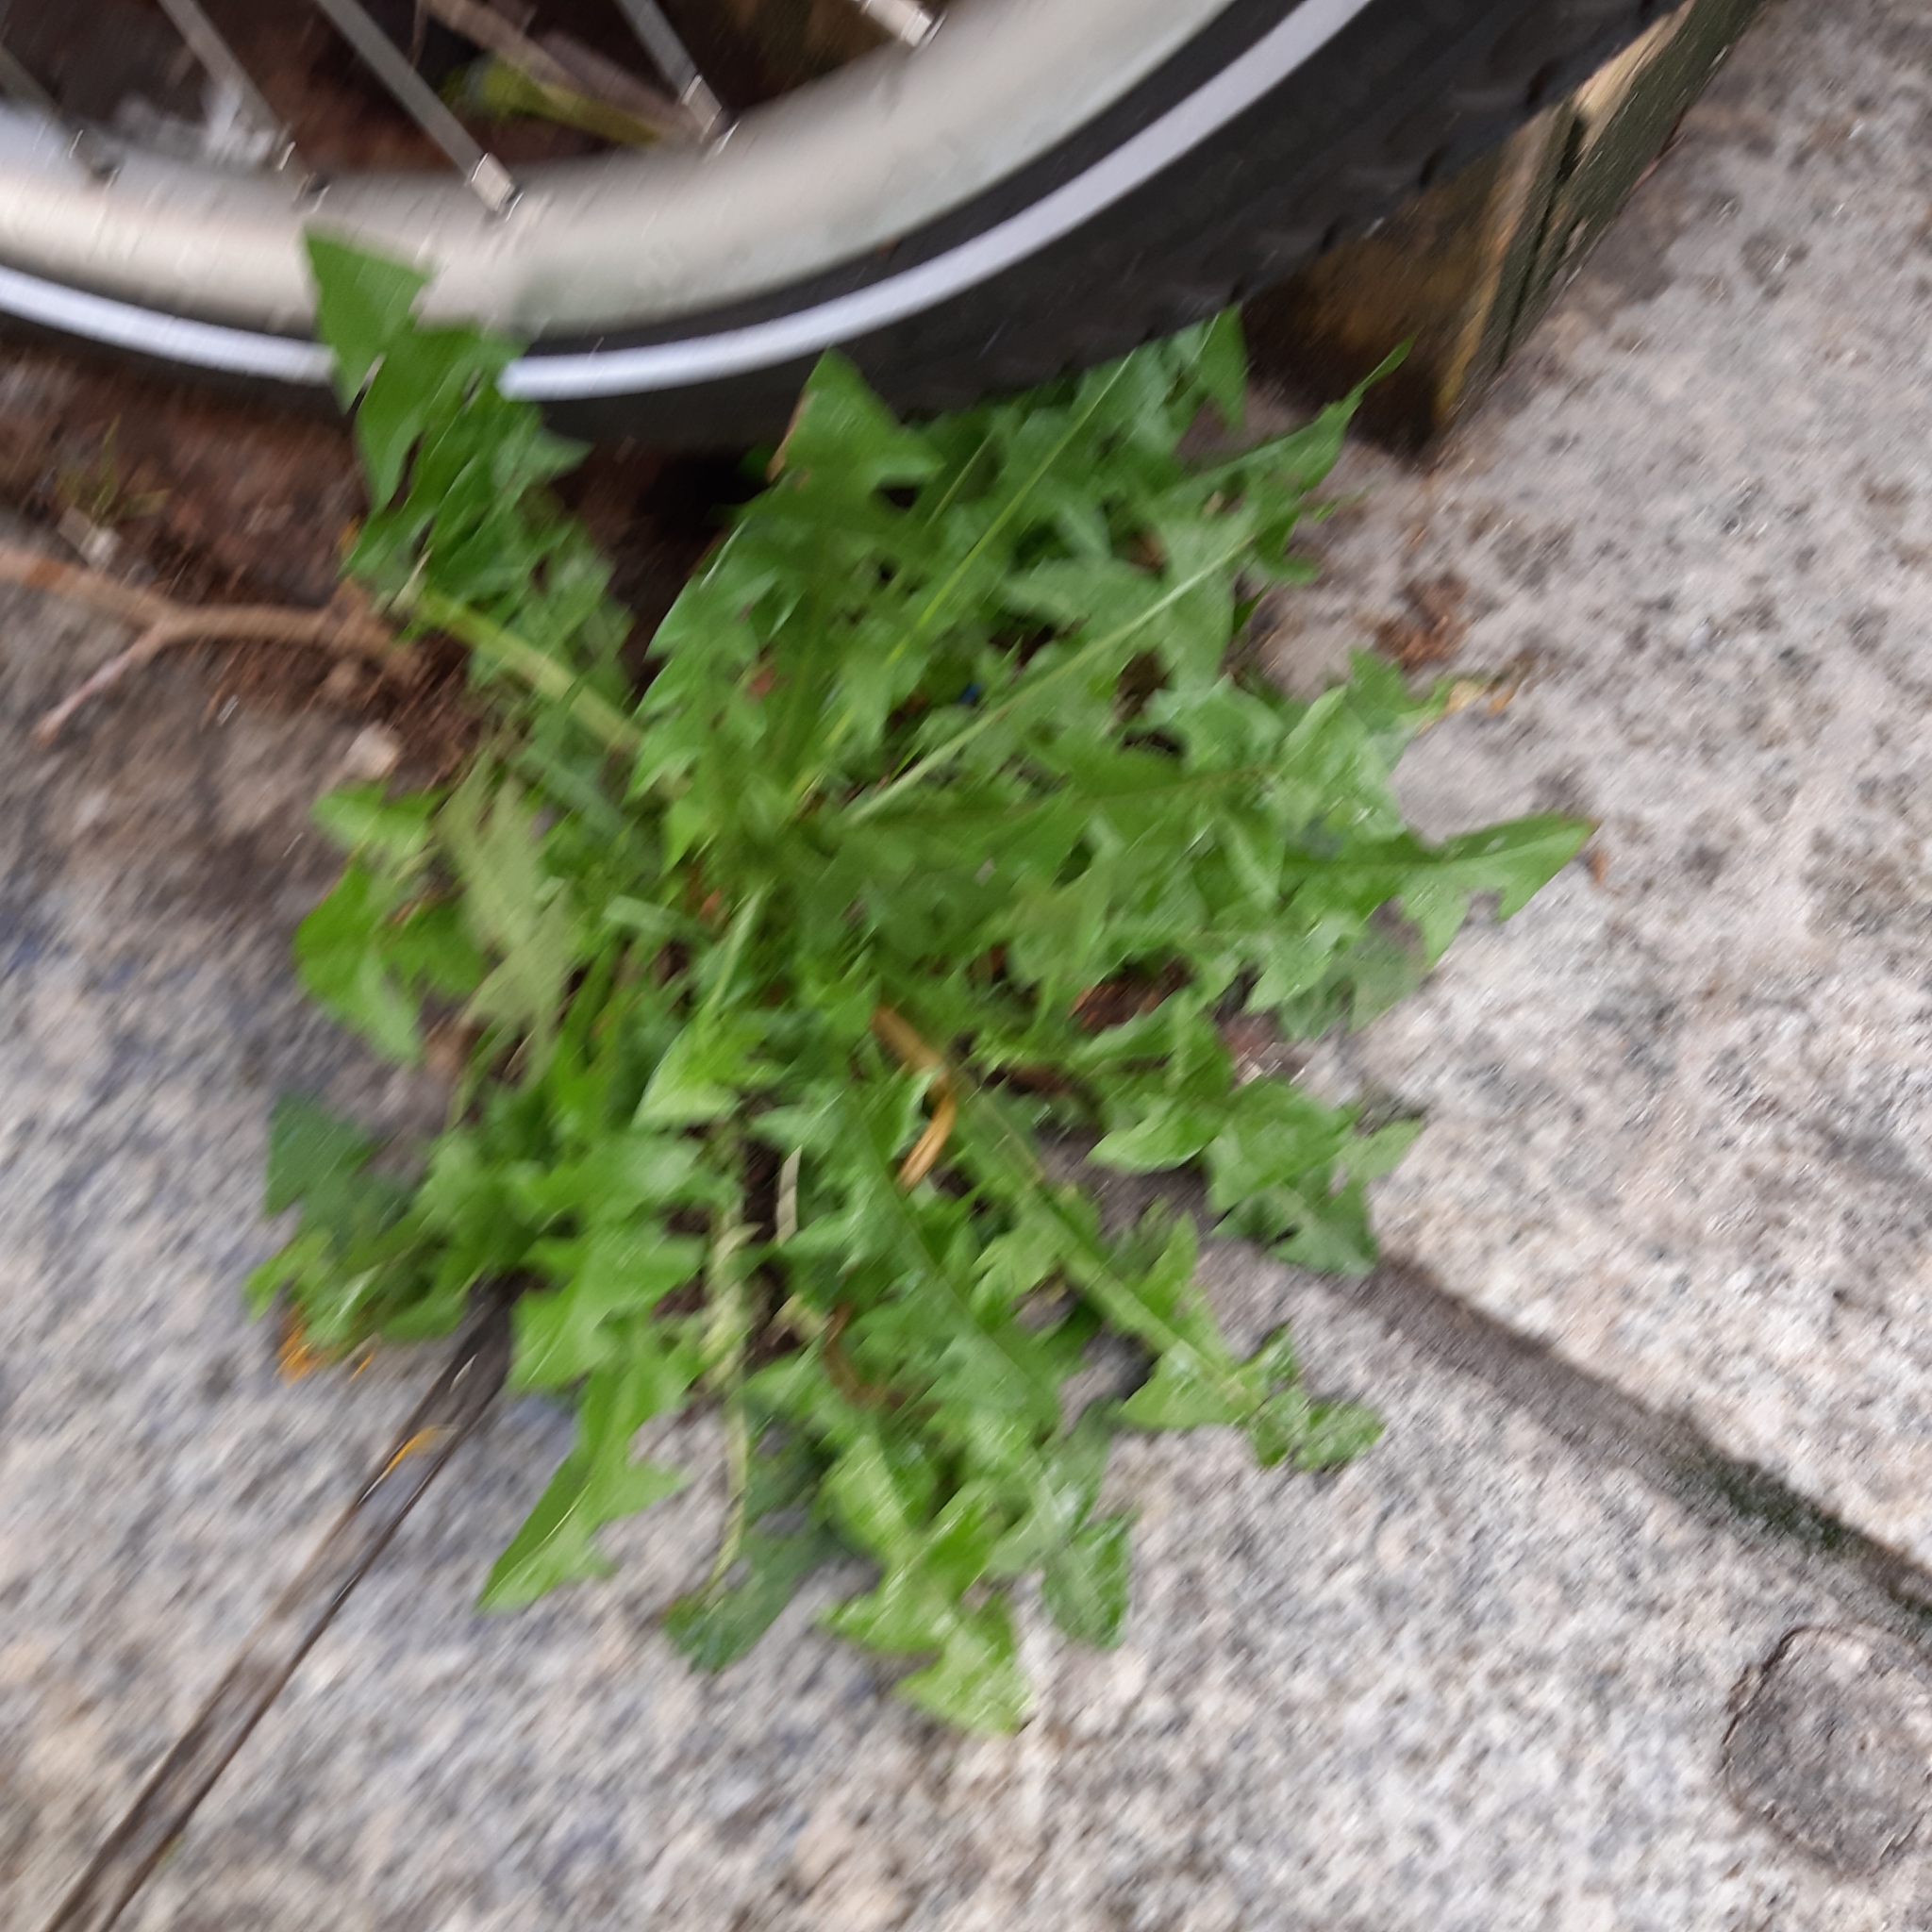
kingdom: Plantae
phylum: Tracheophyta
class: Magnoliopsida
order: Asterales
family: Asteraceae
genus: Taraxacum
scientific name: Taraxacum officinale
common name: Common dandelion
